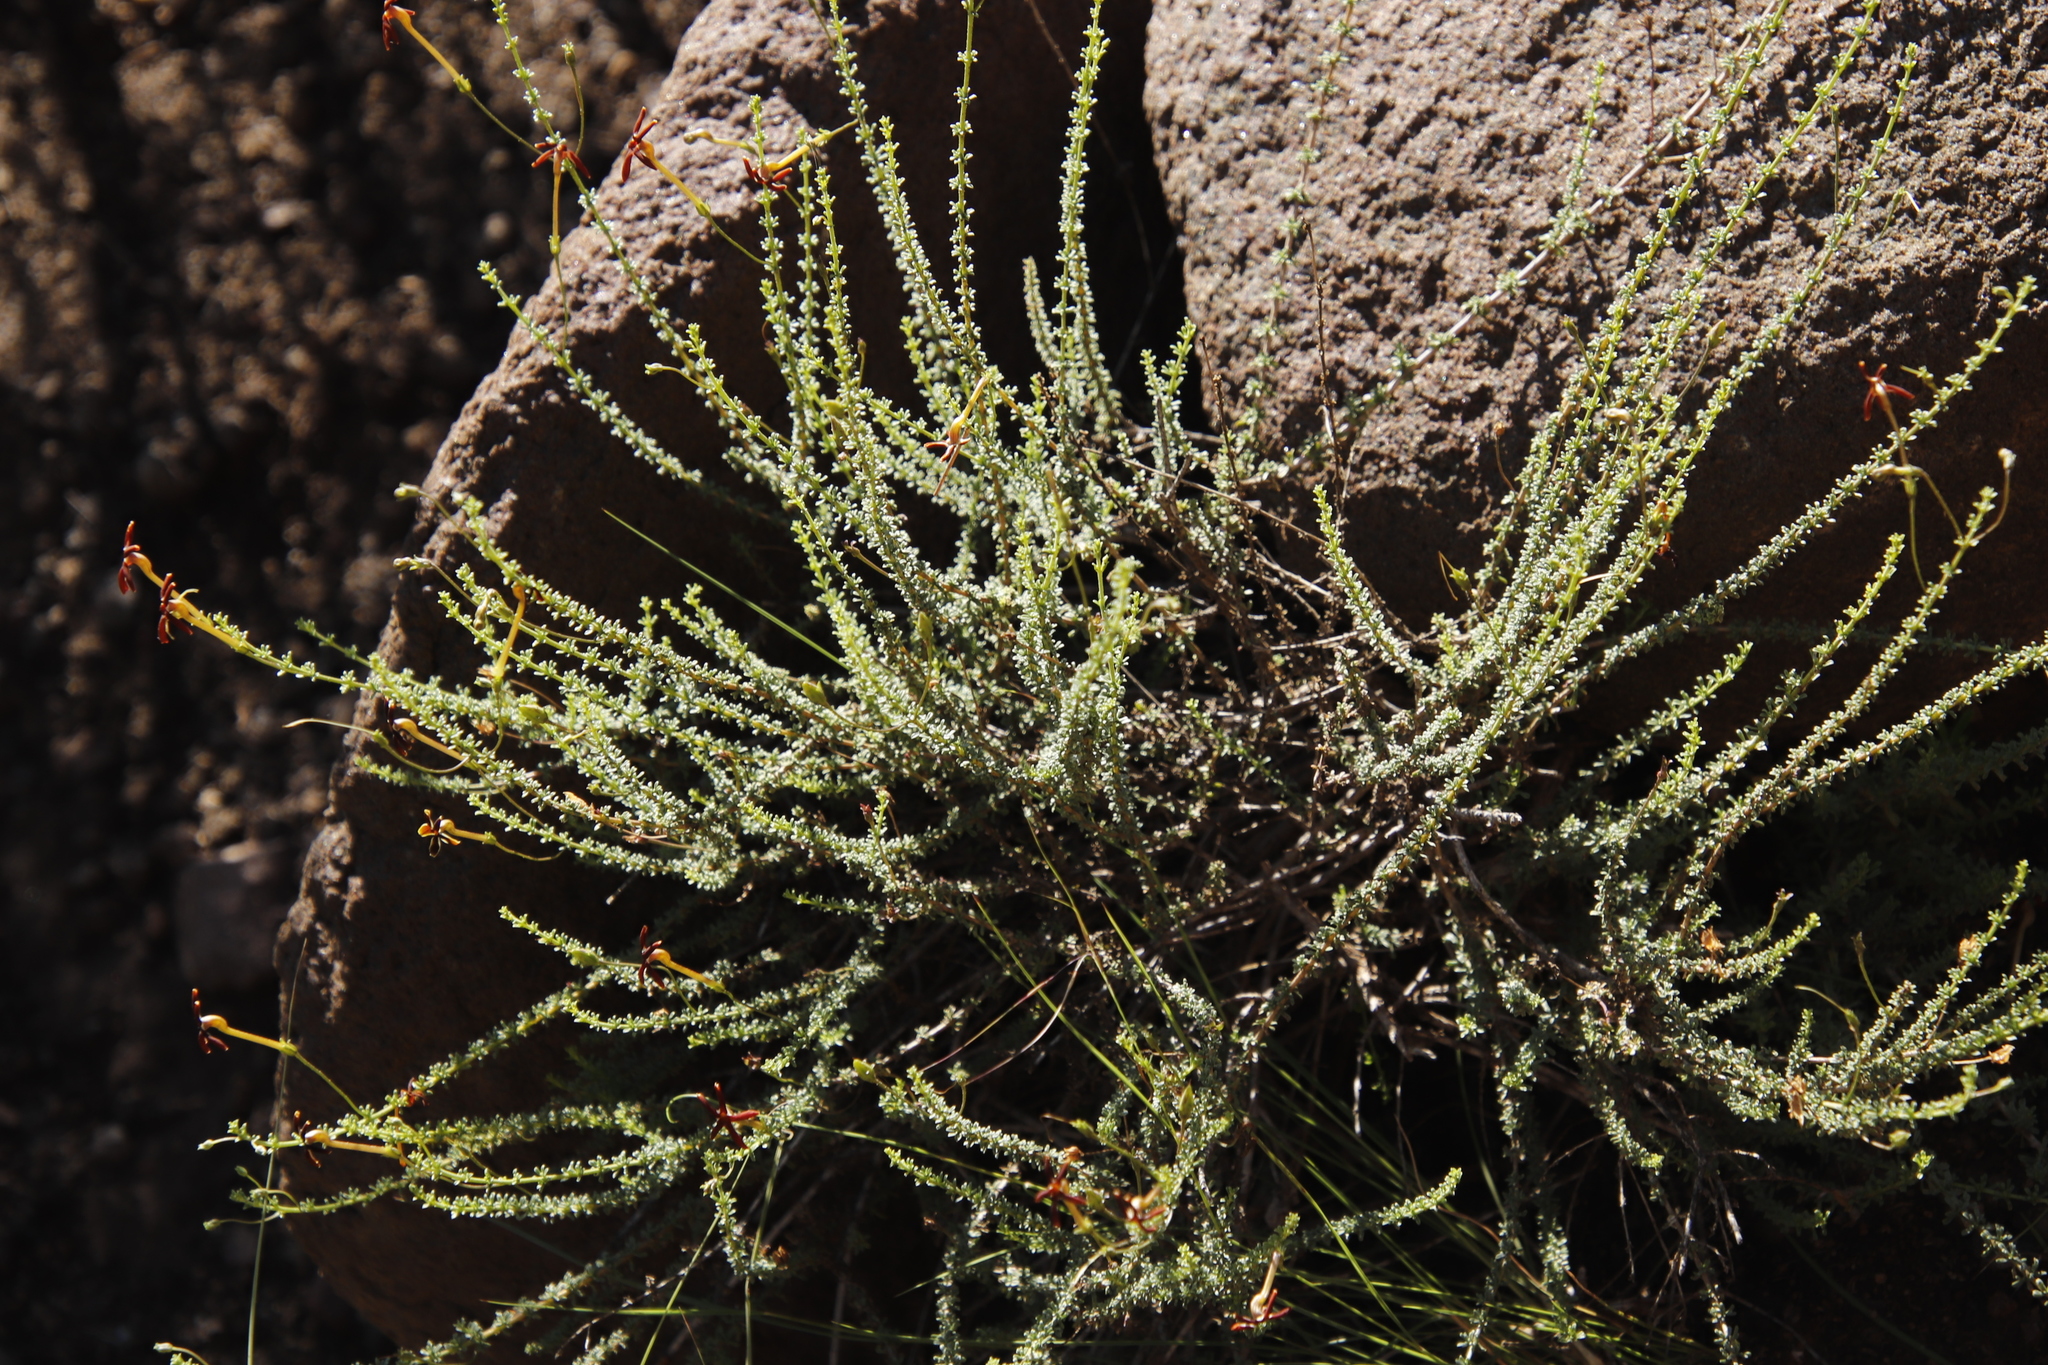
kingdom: Plantae
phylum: Tracheophyta
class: Magnoliopsida
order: Lamiales
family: Scrophulariaceae
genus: Jamesbrittenia
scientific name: Jamesbrittenia atropurpurea
